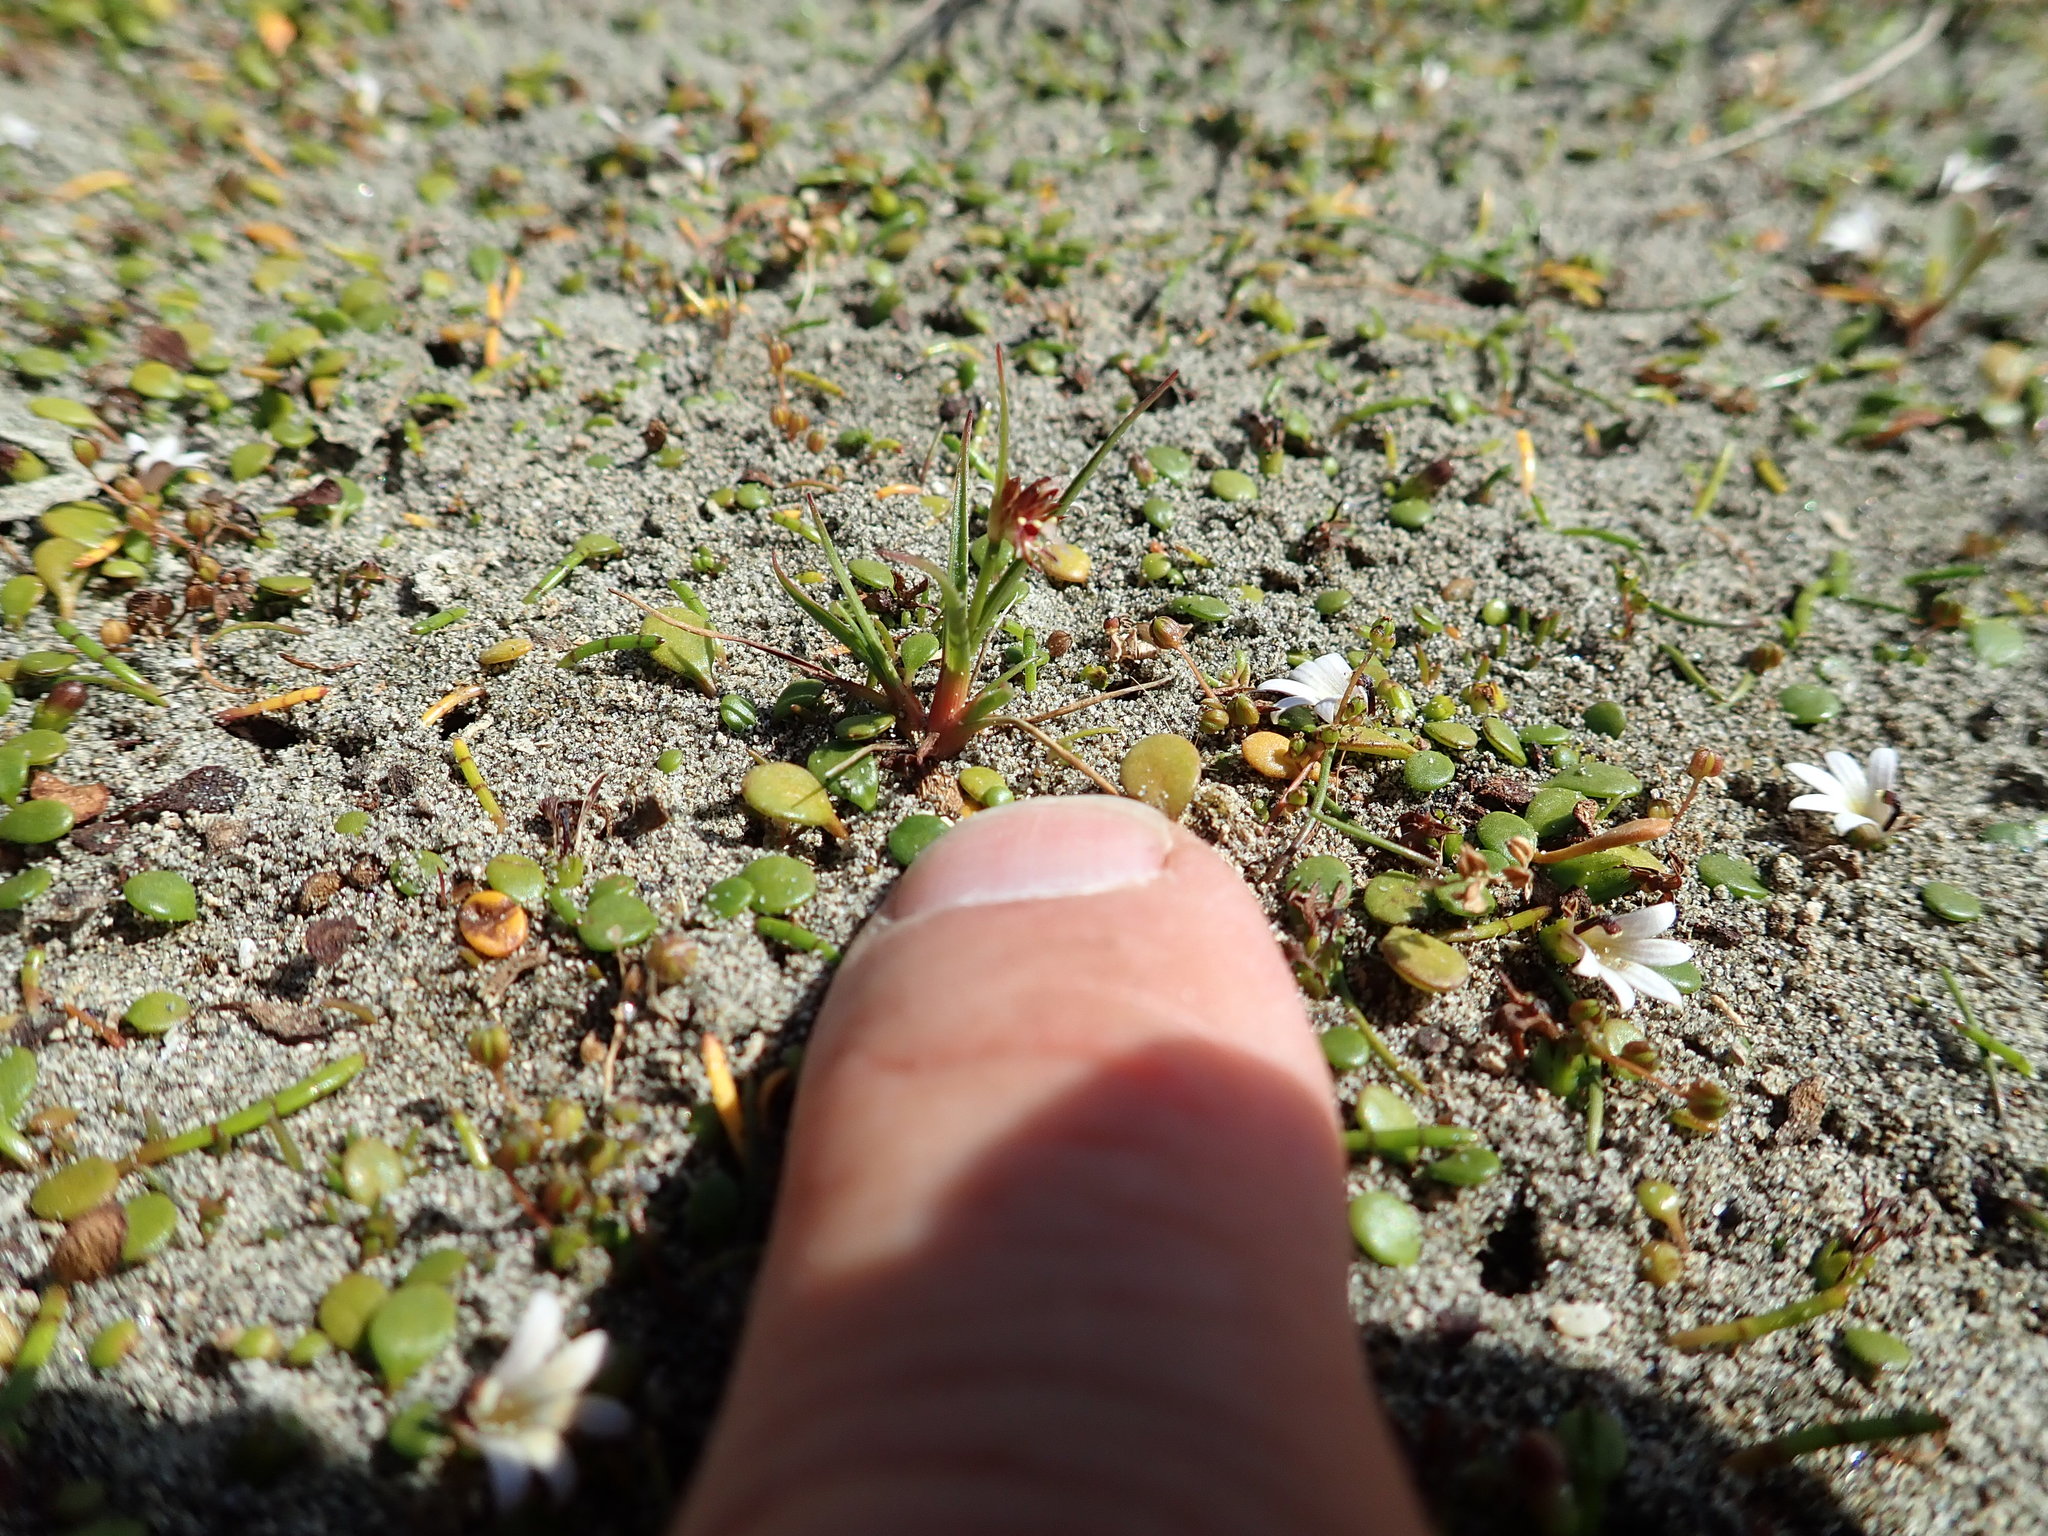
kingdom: Plantae
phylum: Tracheophyta
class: Liliopsida
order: Poales
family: Juncaceae
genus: Juncus
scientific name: Juncus caespiticius
